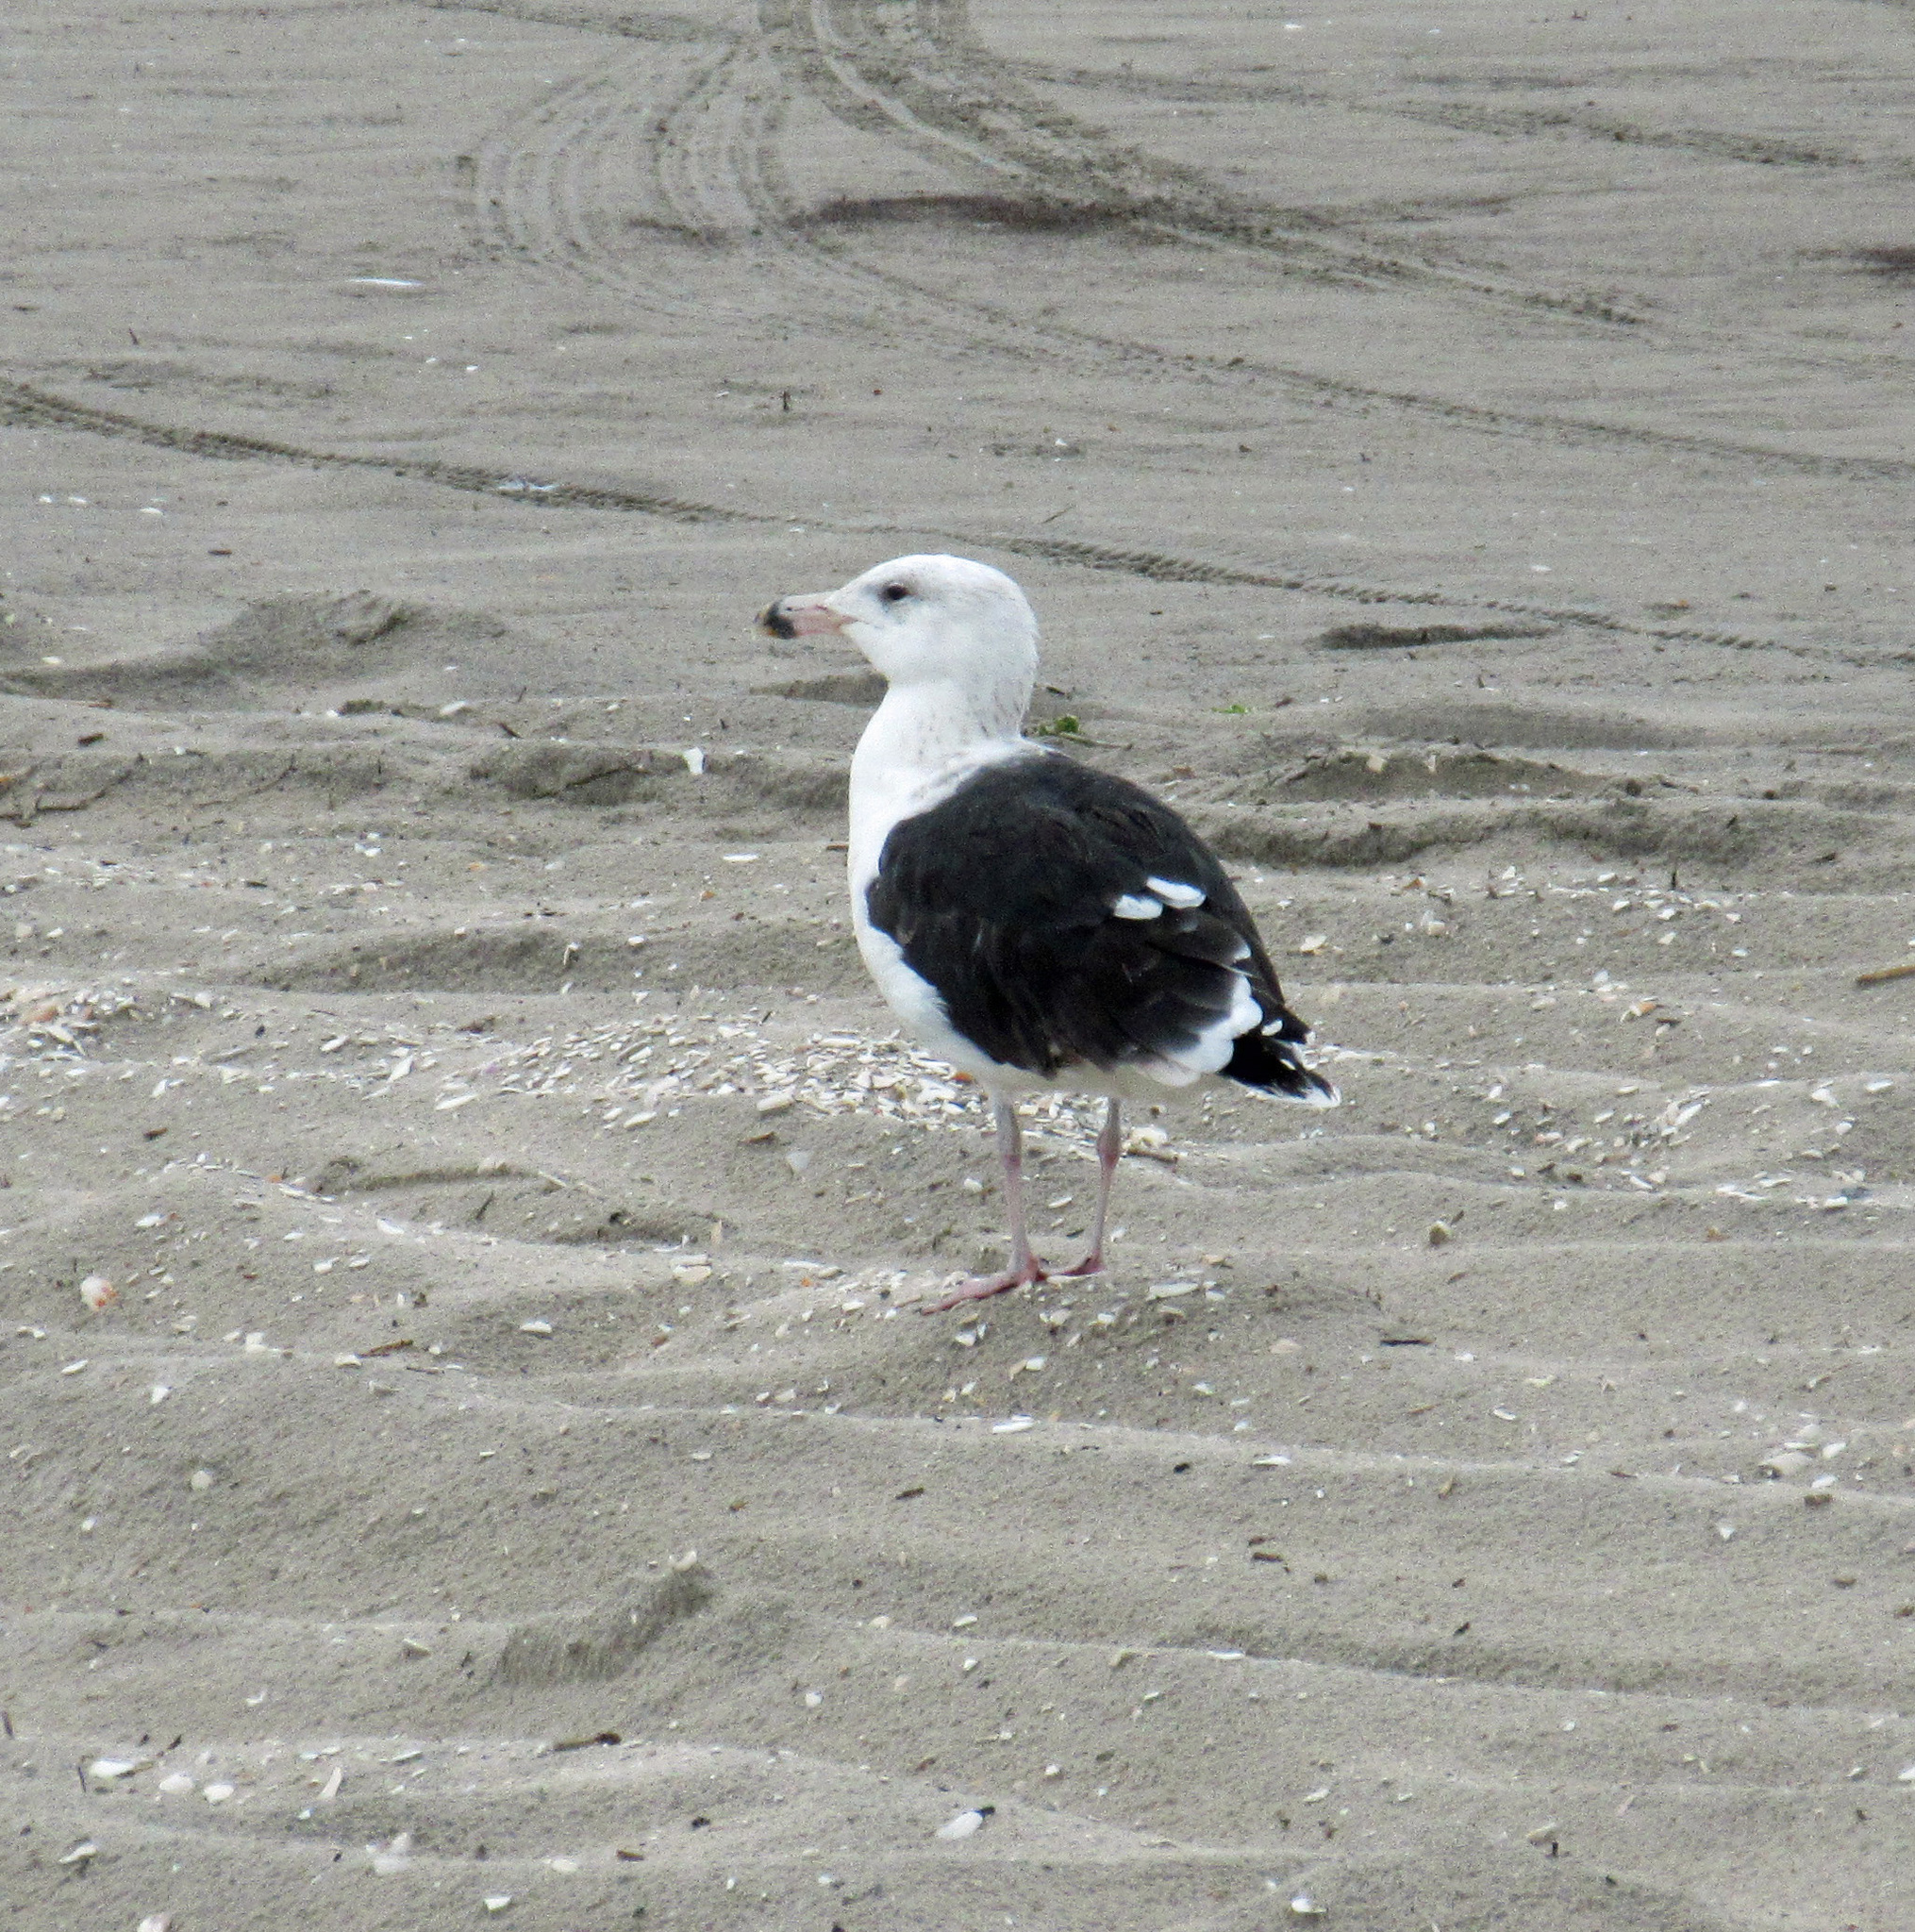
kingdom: Animalia
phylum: Chordata
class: Aves
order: Charadriiformes
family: Laridae
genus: Larus
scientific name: Larus marinus
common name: Great black-backed gull
